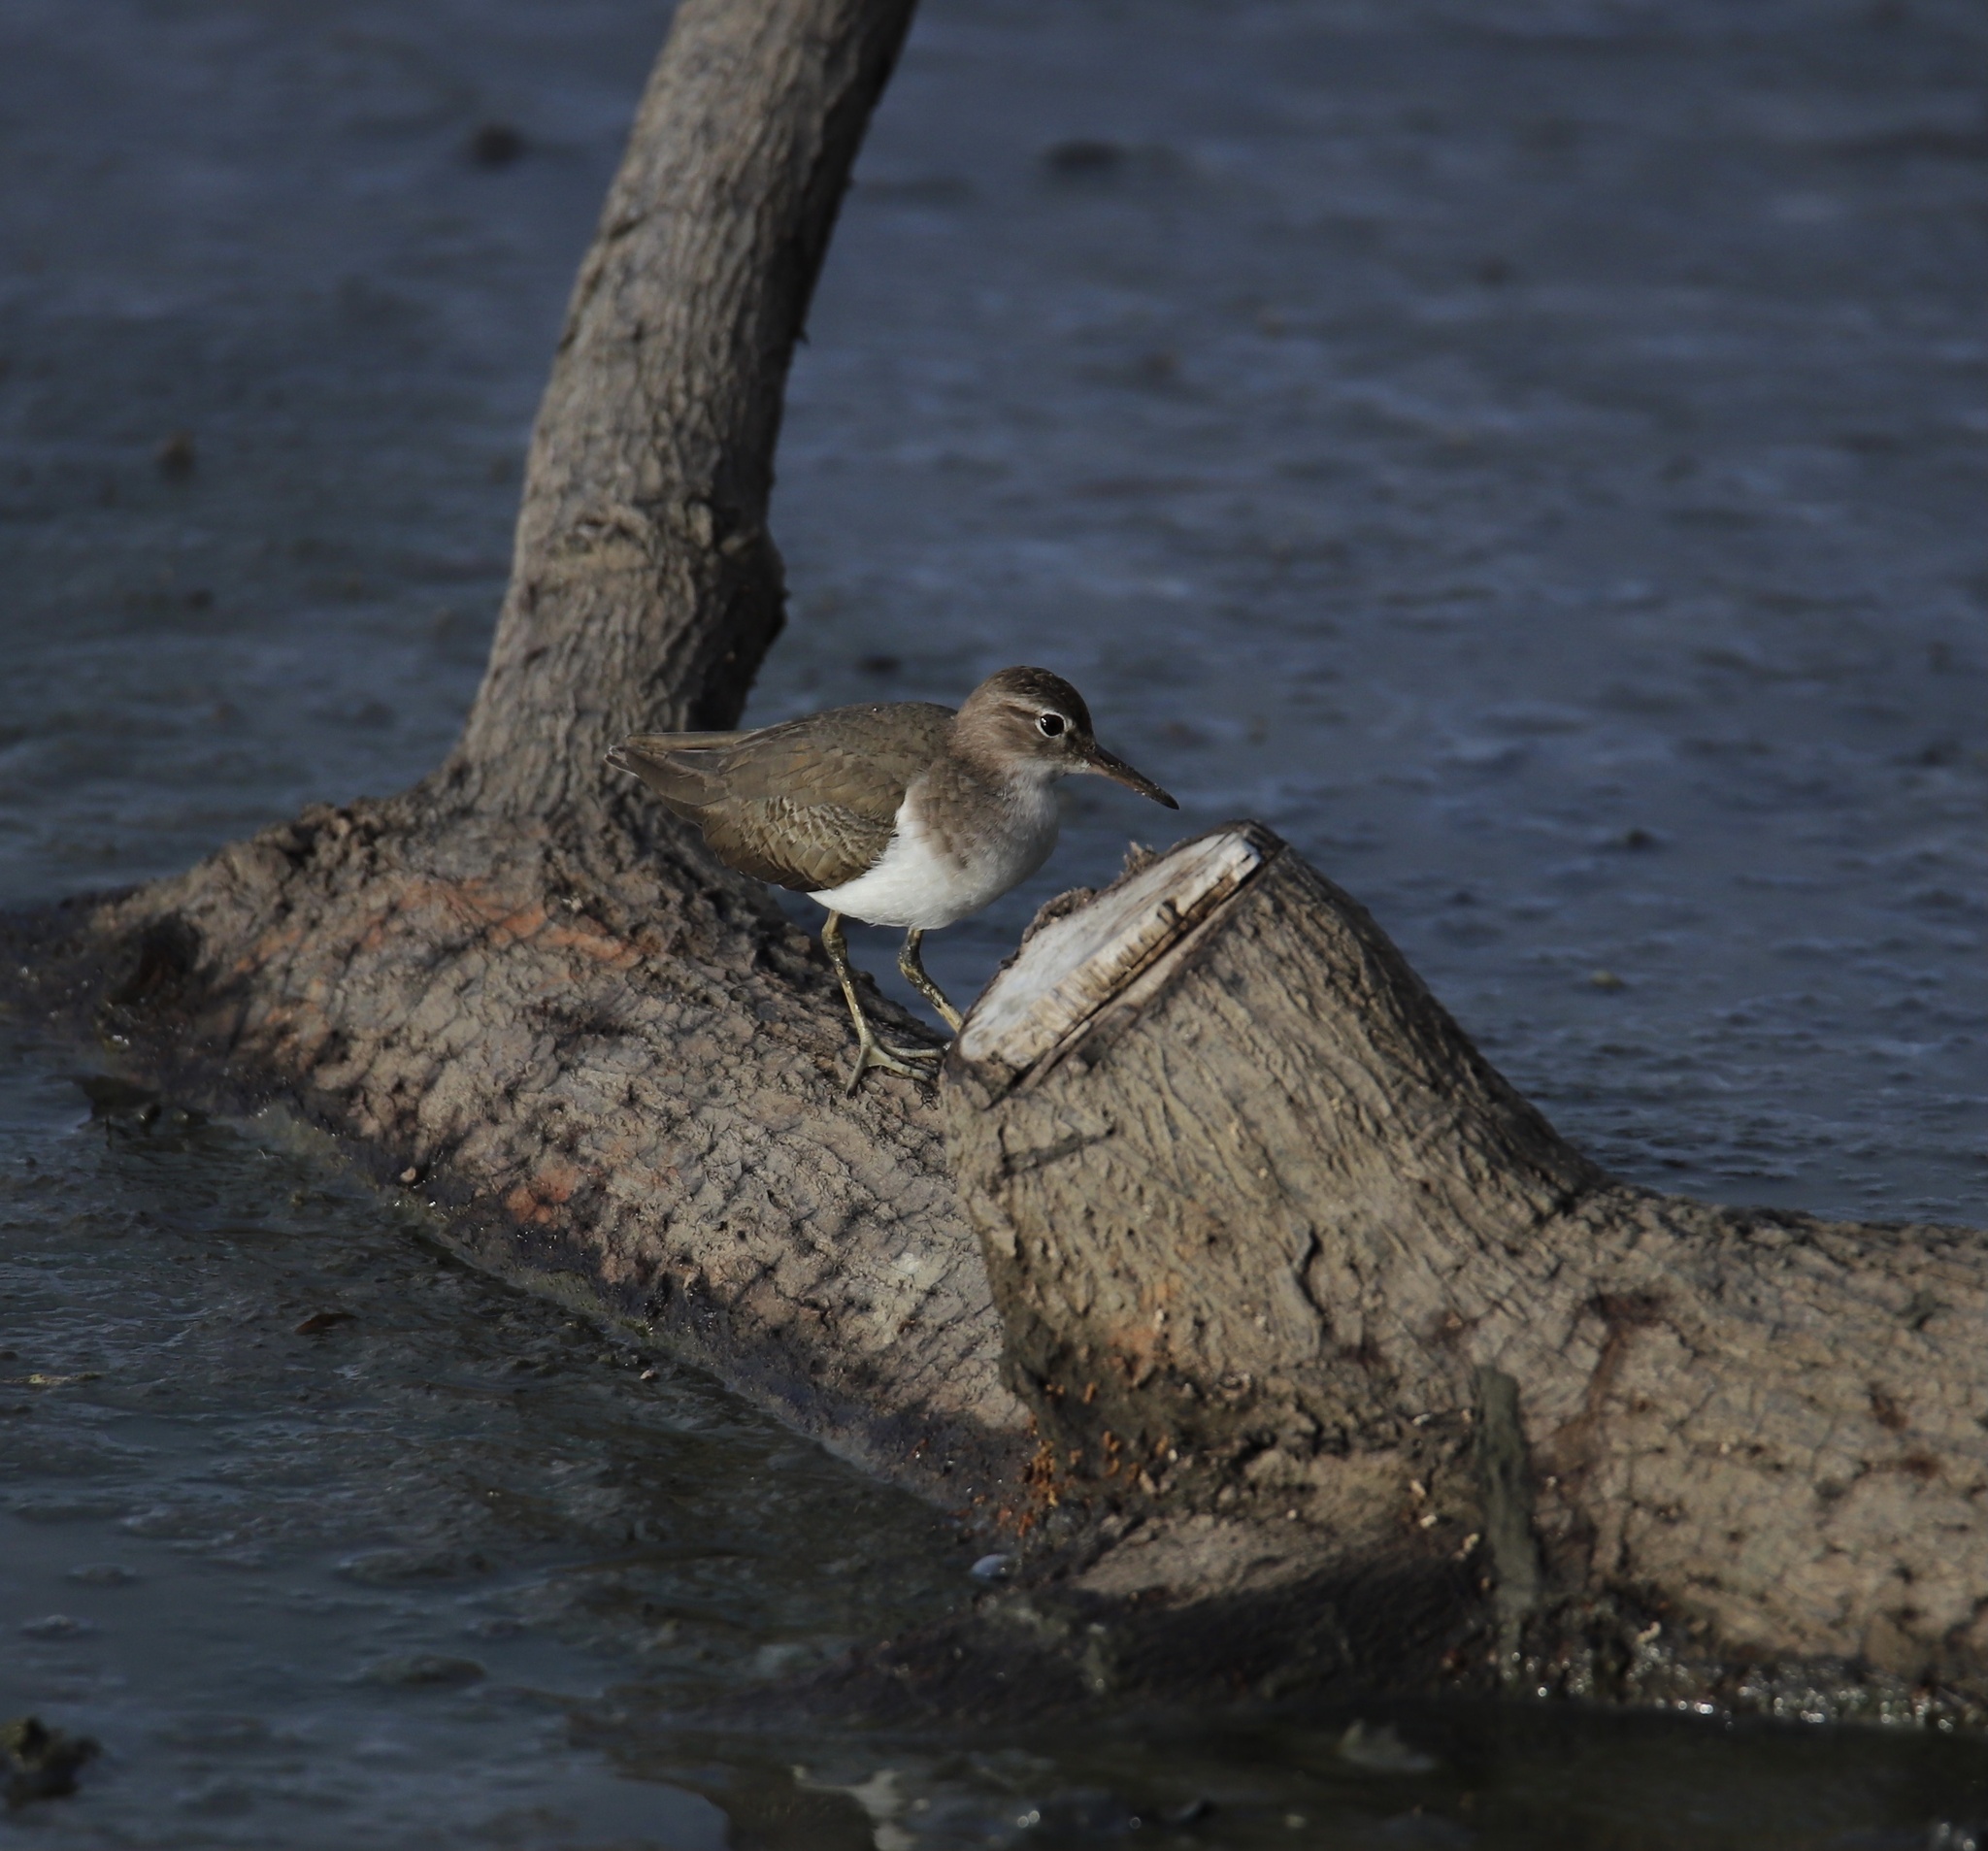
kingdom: Animalia
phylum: Chordata
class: Aves
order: Charadriiformes
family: Scolopacidae
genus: Actitis
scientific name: Actitis macularius
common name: Spotted sandpiper
